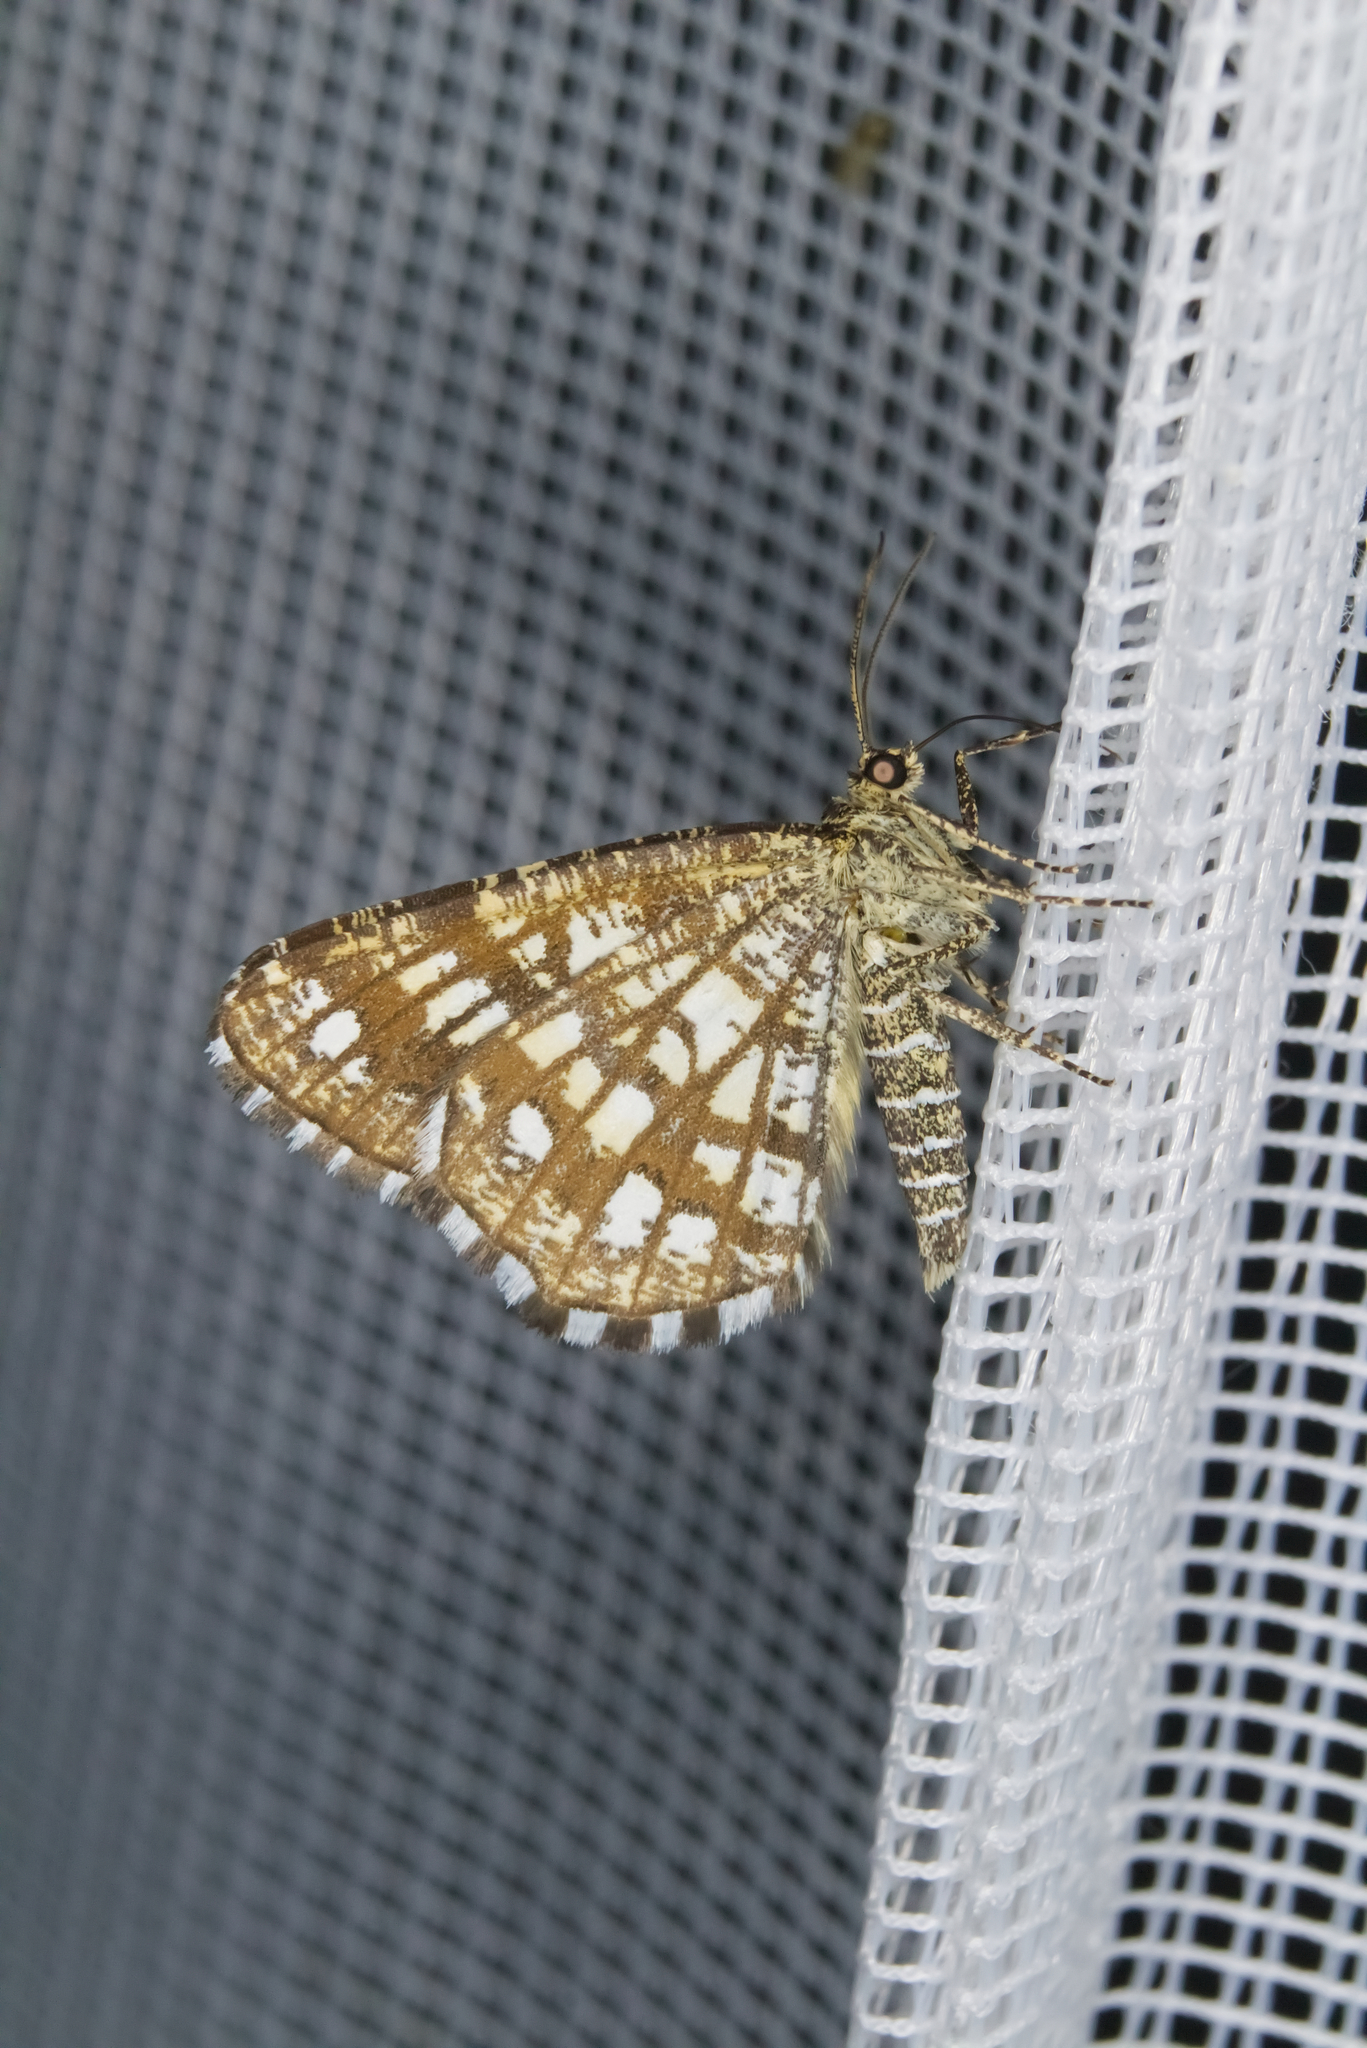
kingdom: Animalia
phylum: Arthropoda
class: Insecta
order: Lepidoptera
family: Geometridae
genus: Chiasmia
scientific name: Chiasmia clathrata
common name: Latticed heath
